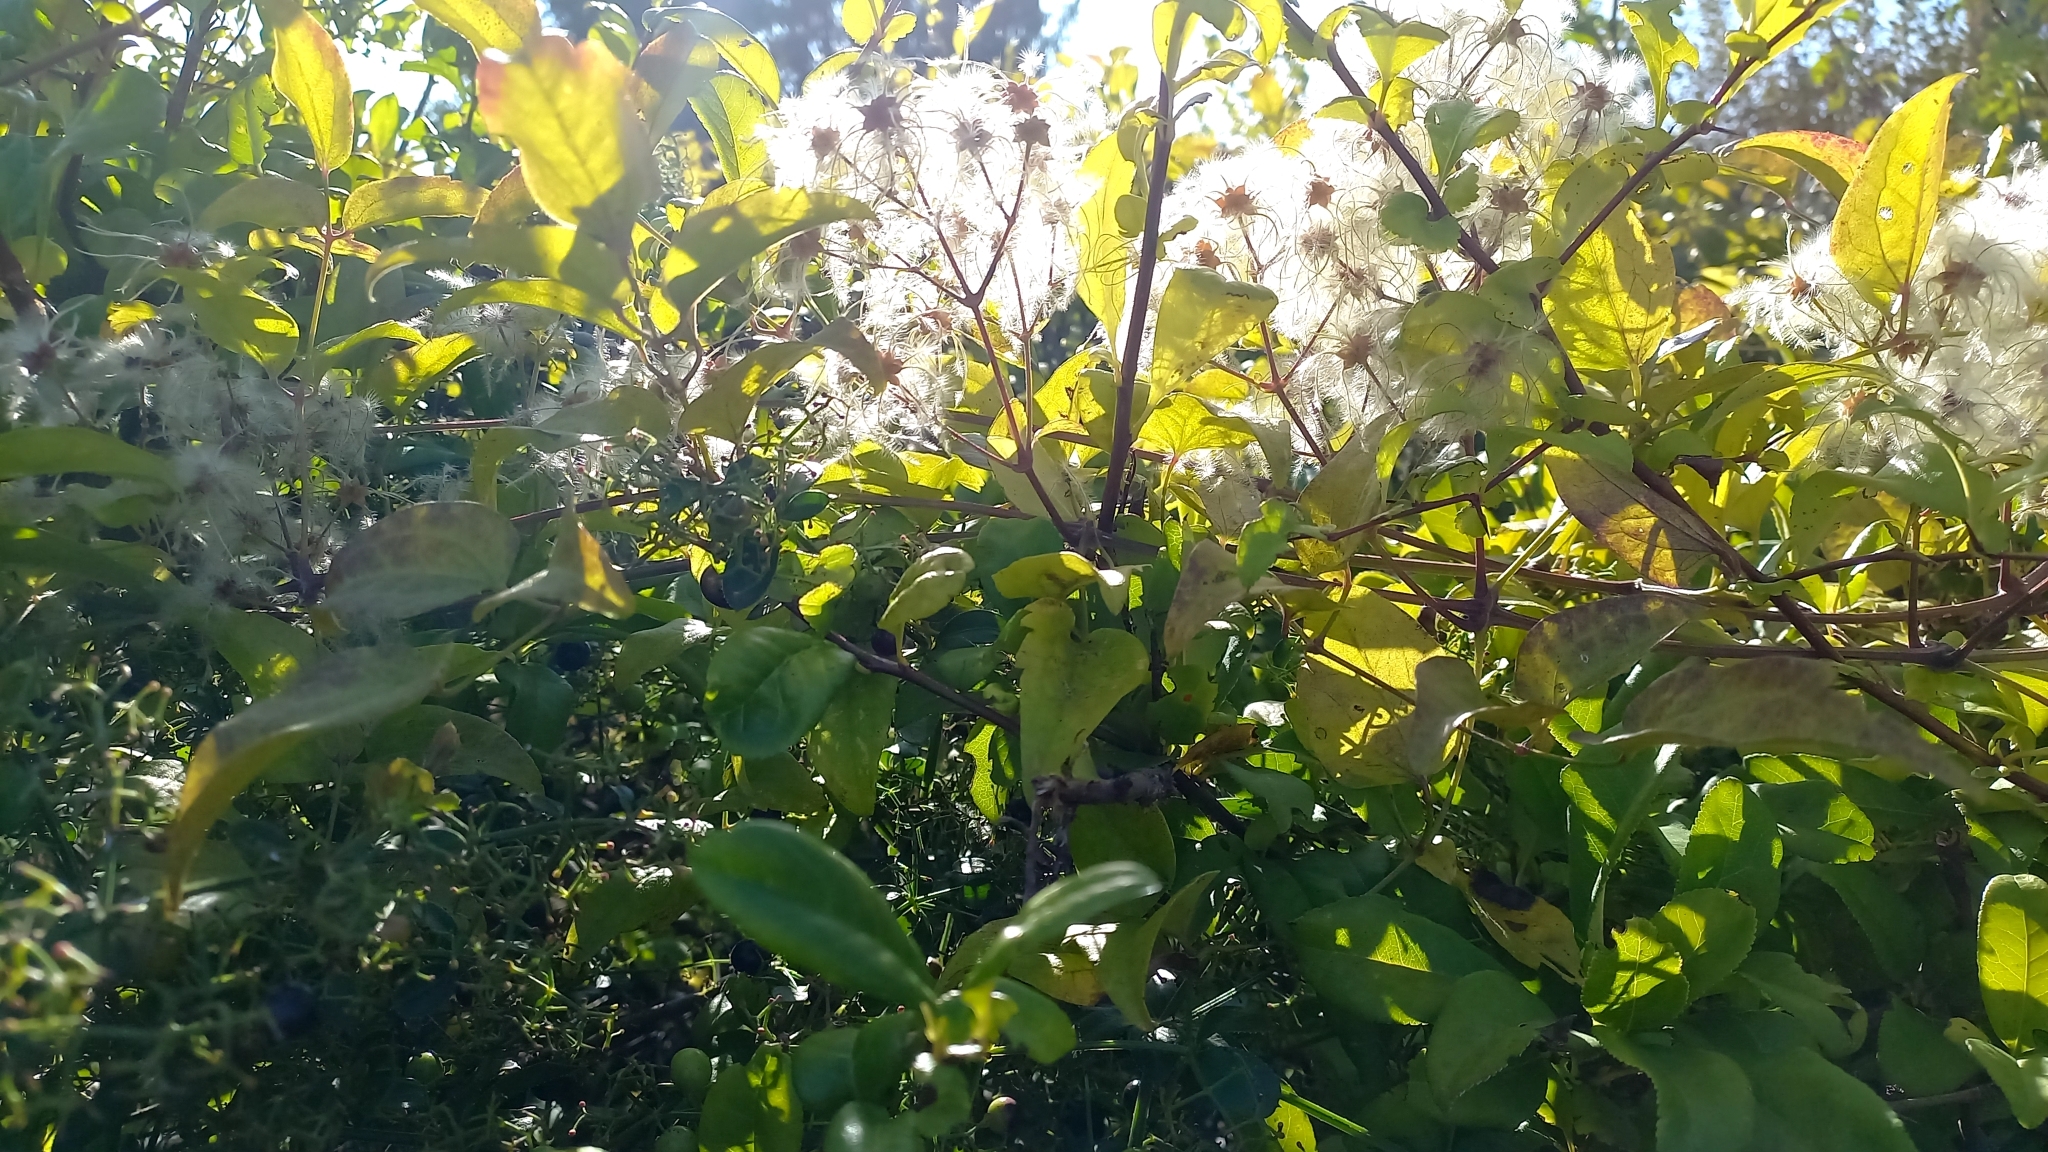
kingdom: Plantae
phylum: Tracheophyta
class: Magnoliopsida
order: Ranunculales
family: Ranunculaceae
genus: Clematis
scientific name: Clematis vitalba
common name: Evergreen clematis
